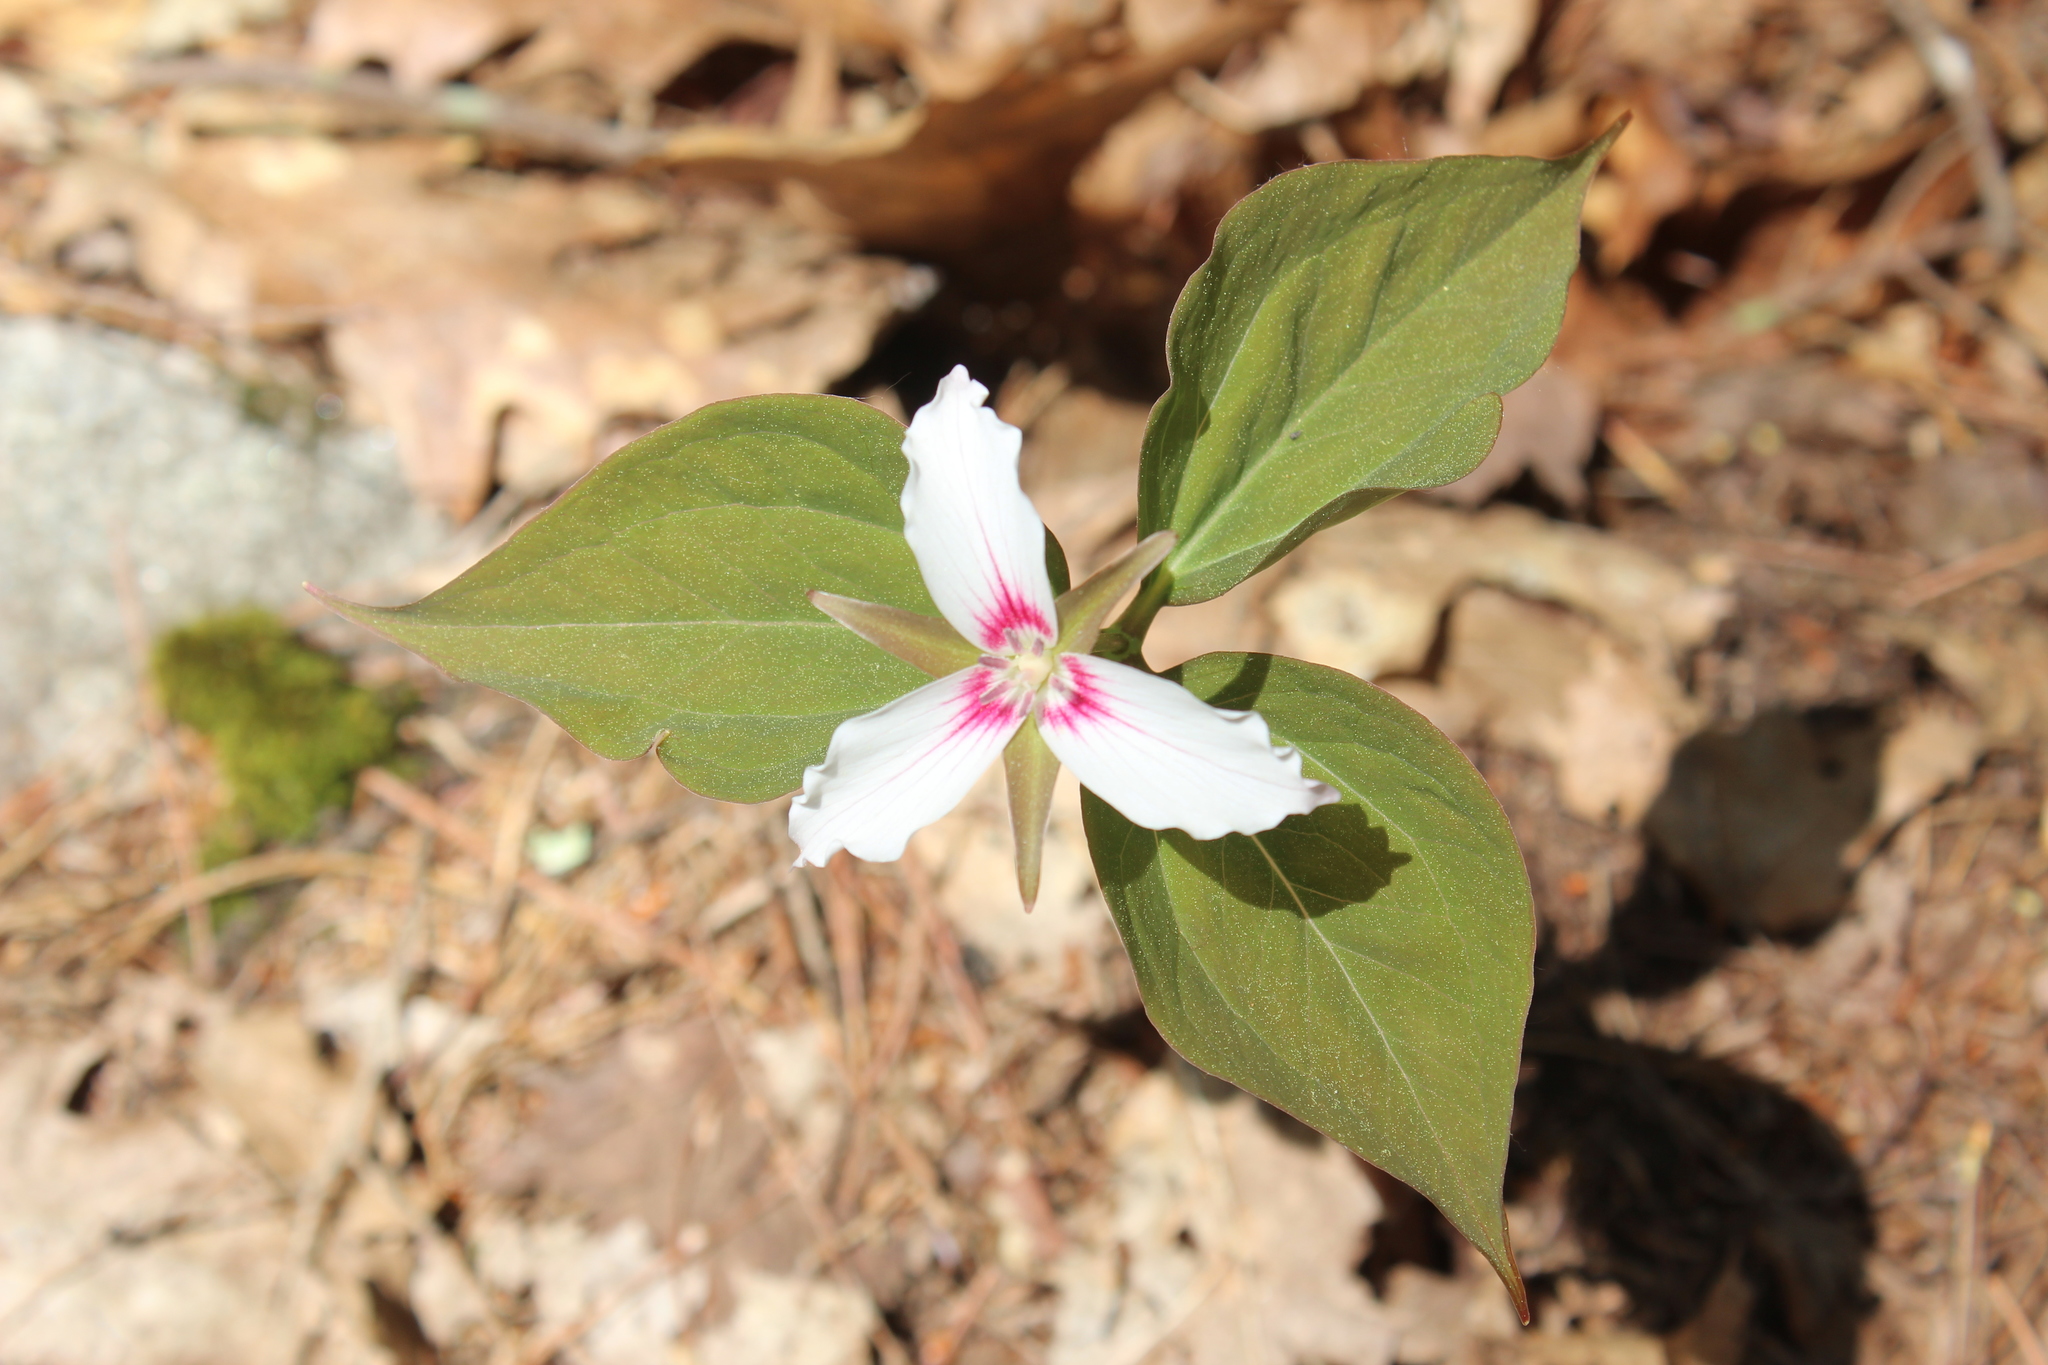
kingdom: Plantae
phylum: Tracheophyta
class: Liliopsida
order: Liliales
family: Melanthiaceae
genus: Trillium
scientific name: Trillium undulatum
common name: Paint trillium
